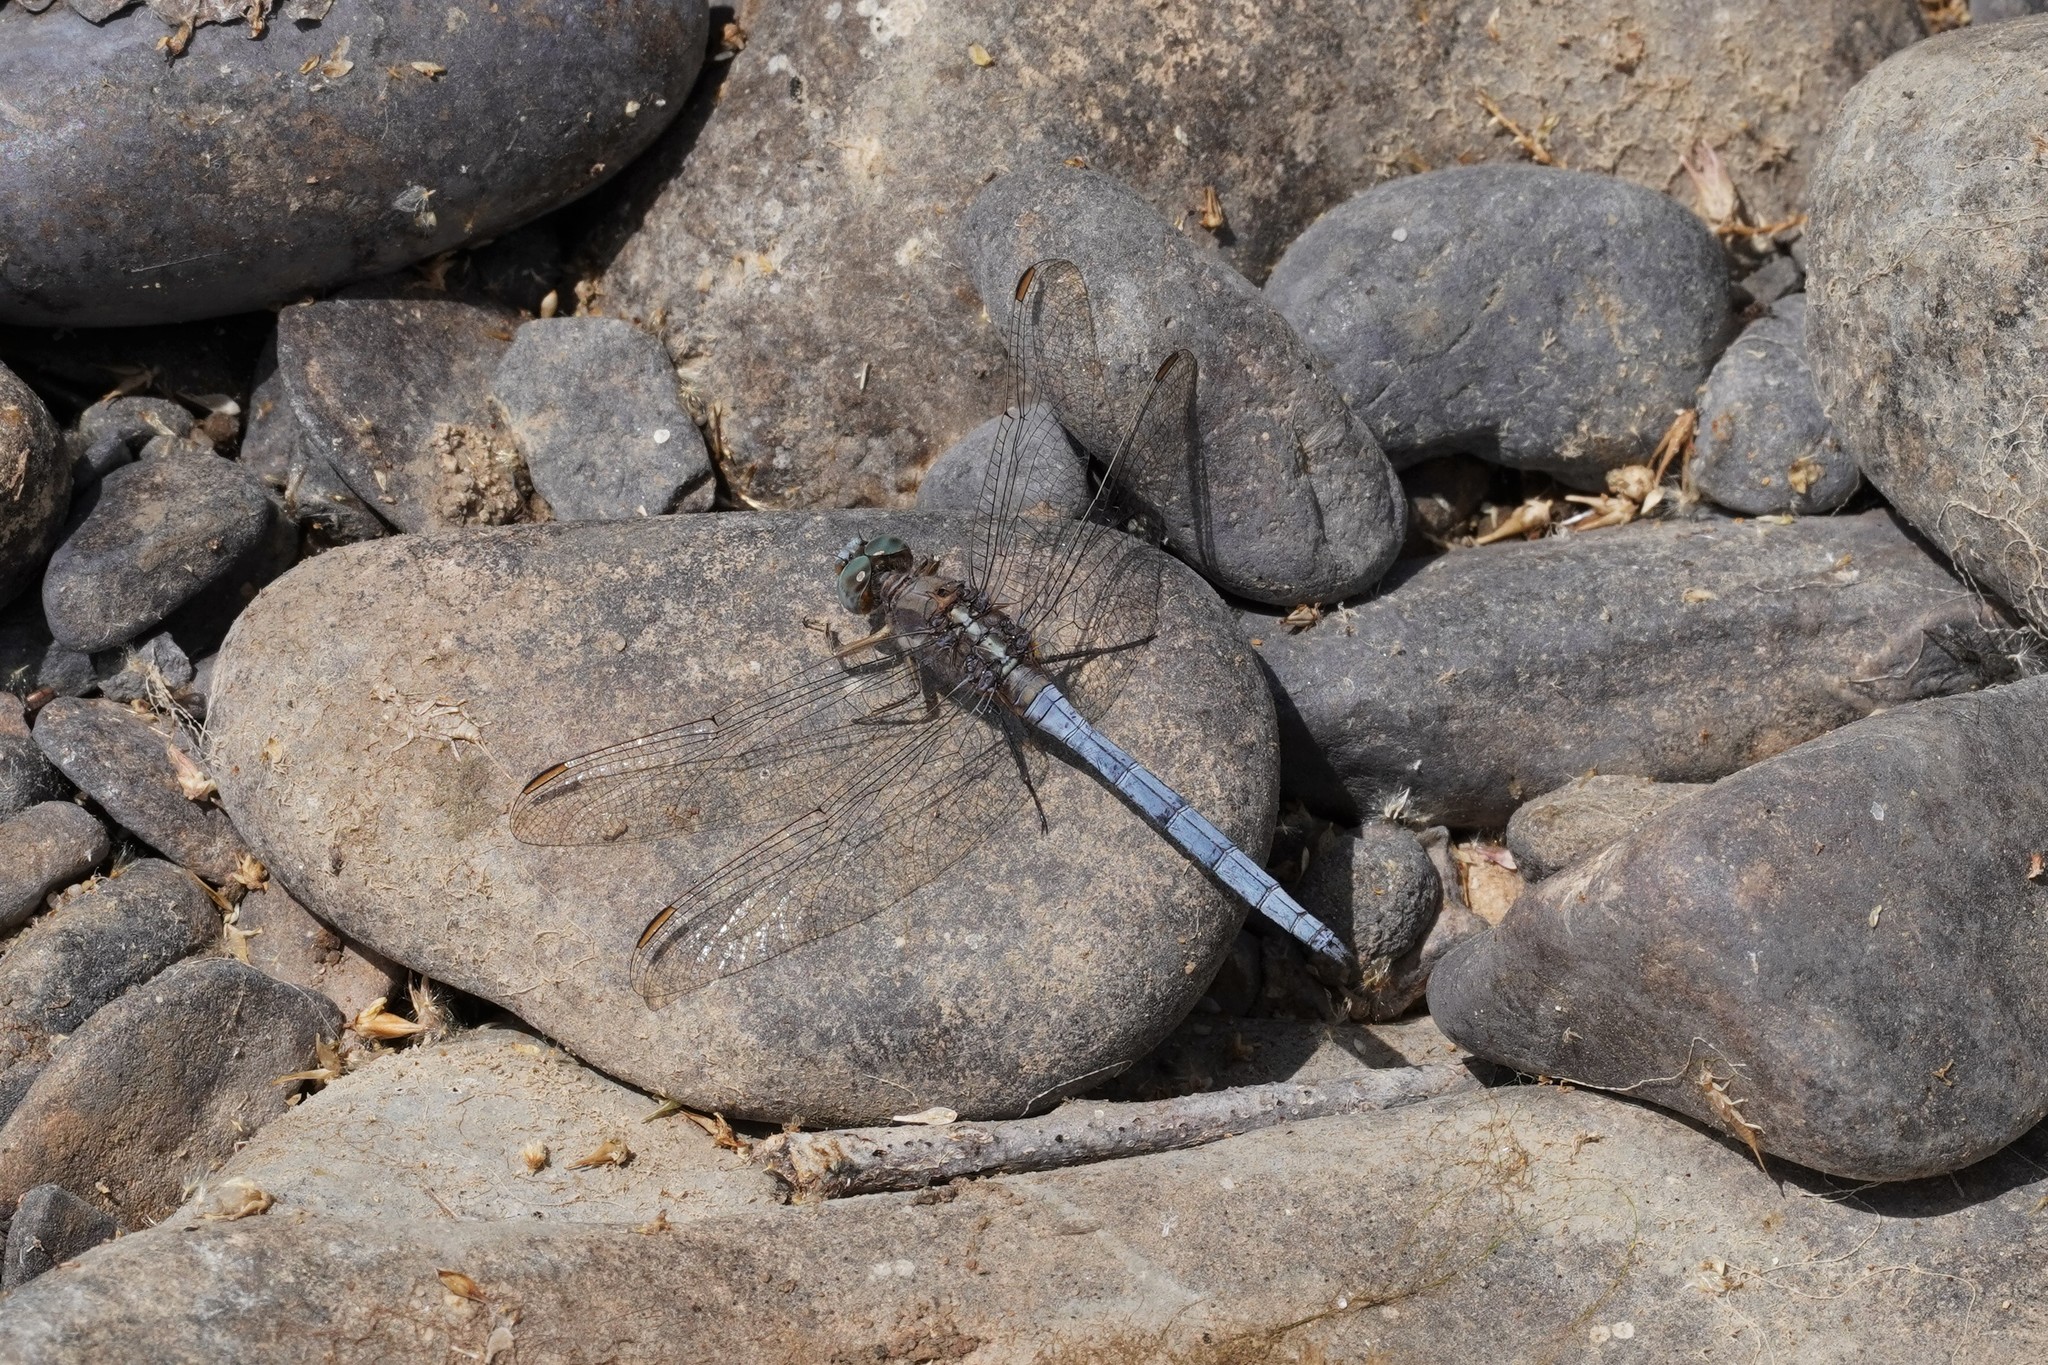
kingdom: Animalia
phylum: Arthropoda
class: Insecta
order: Odonata
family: Libellulidae
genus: Orthetrum
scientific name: Orthetrum chrysostigma
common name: Epaulet skimmer
